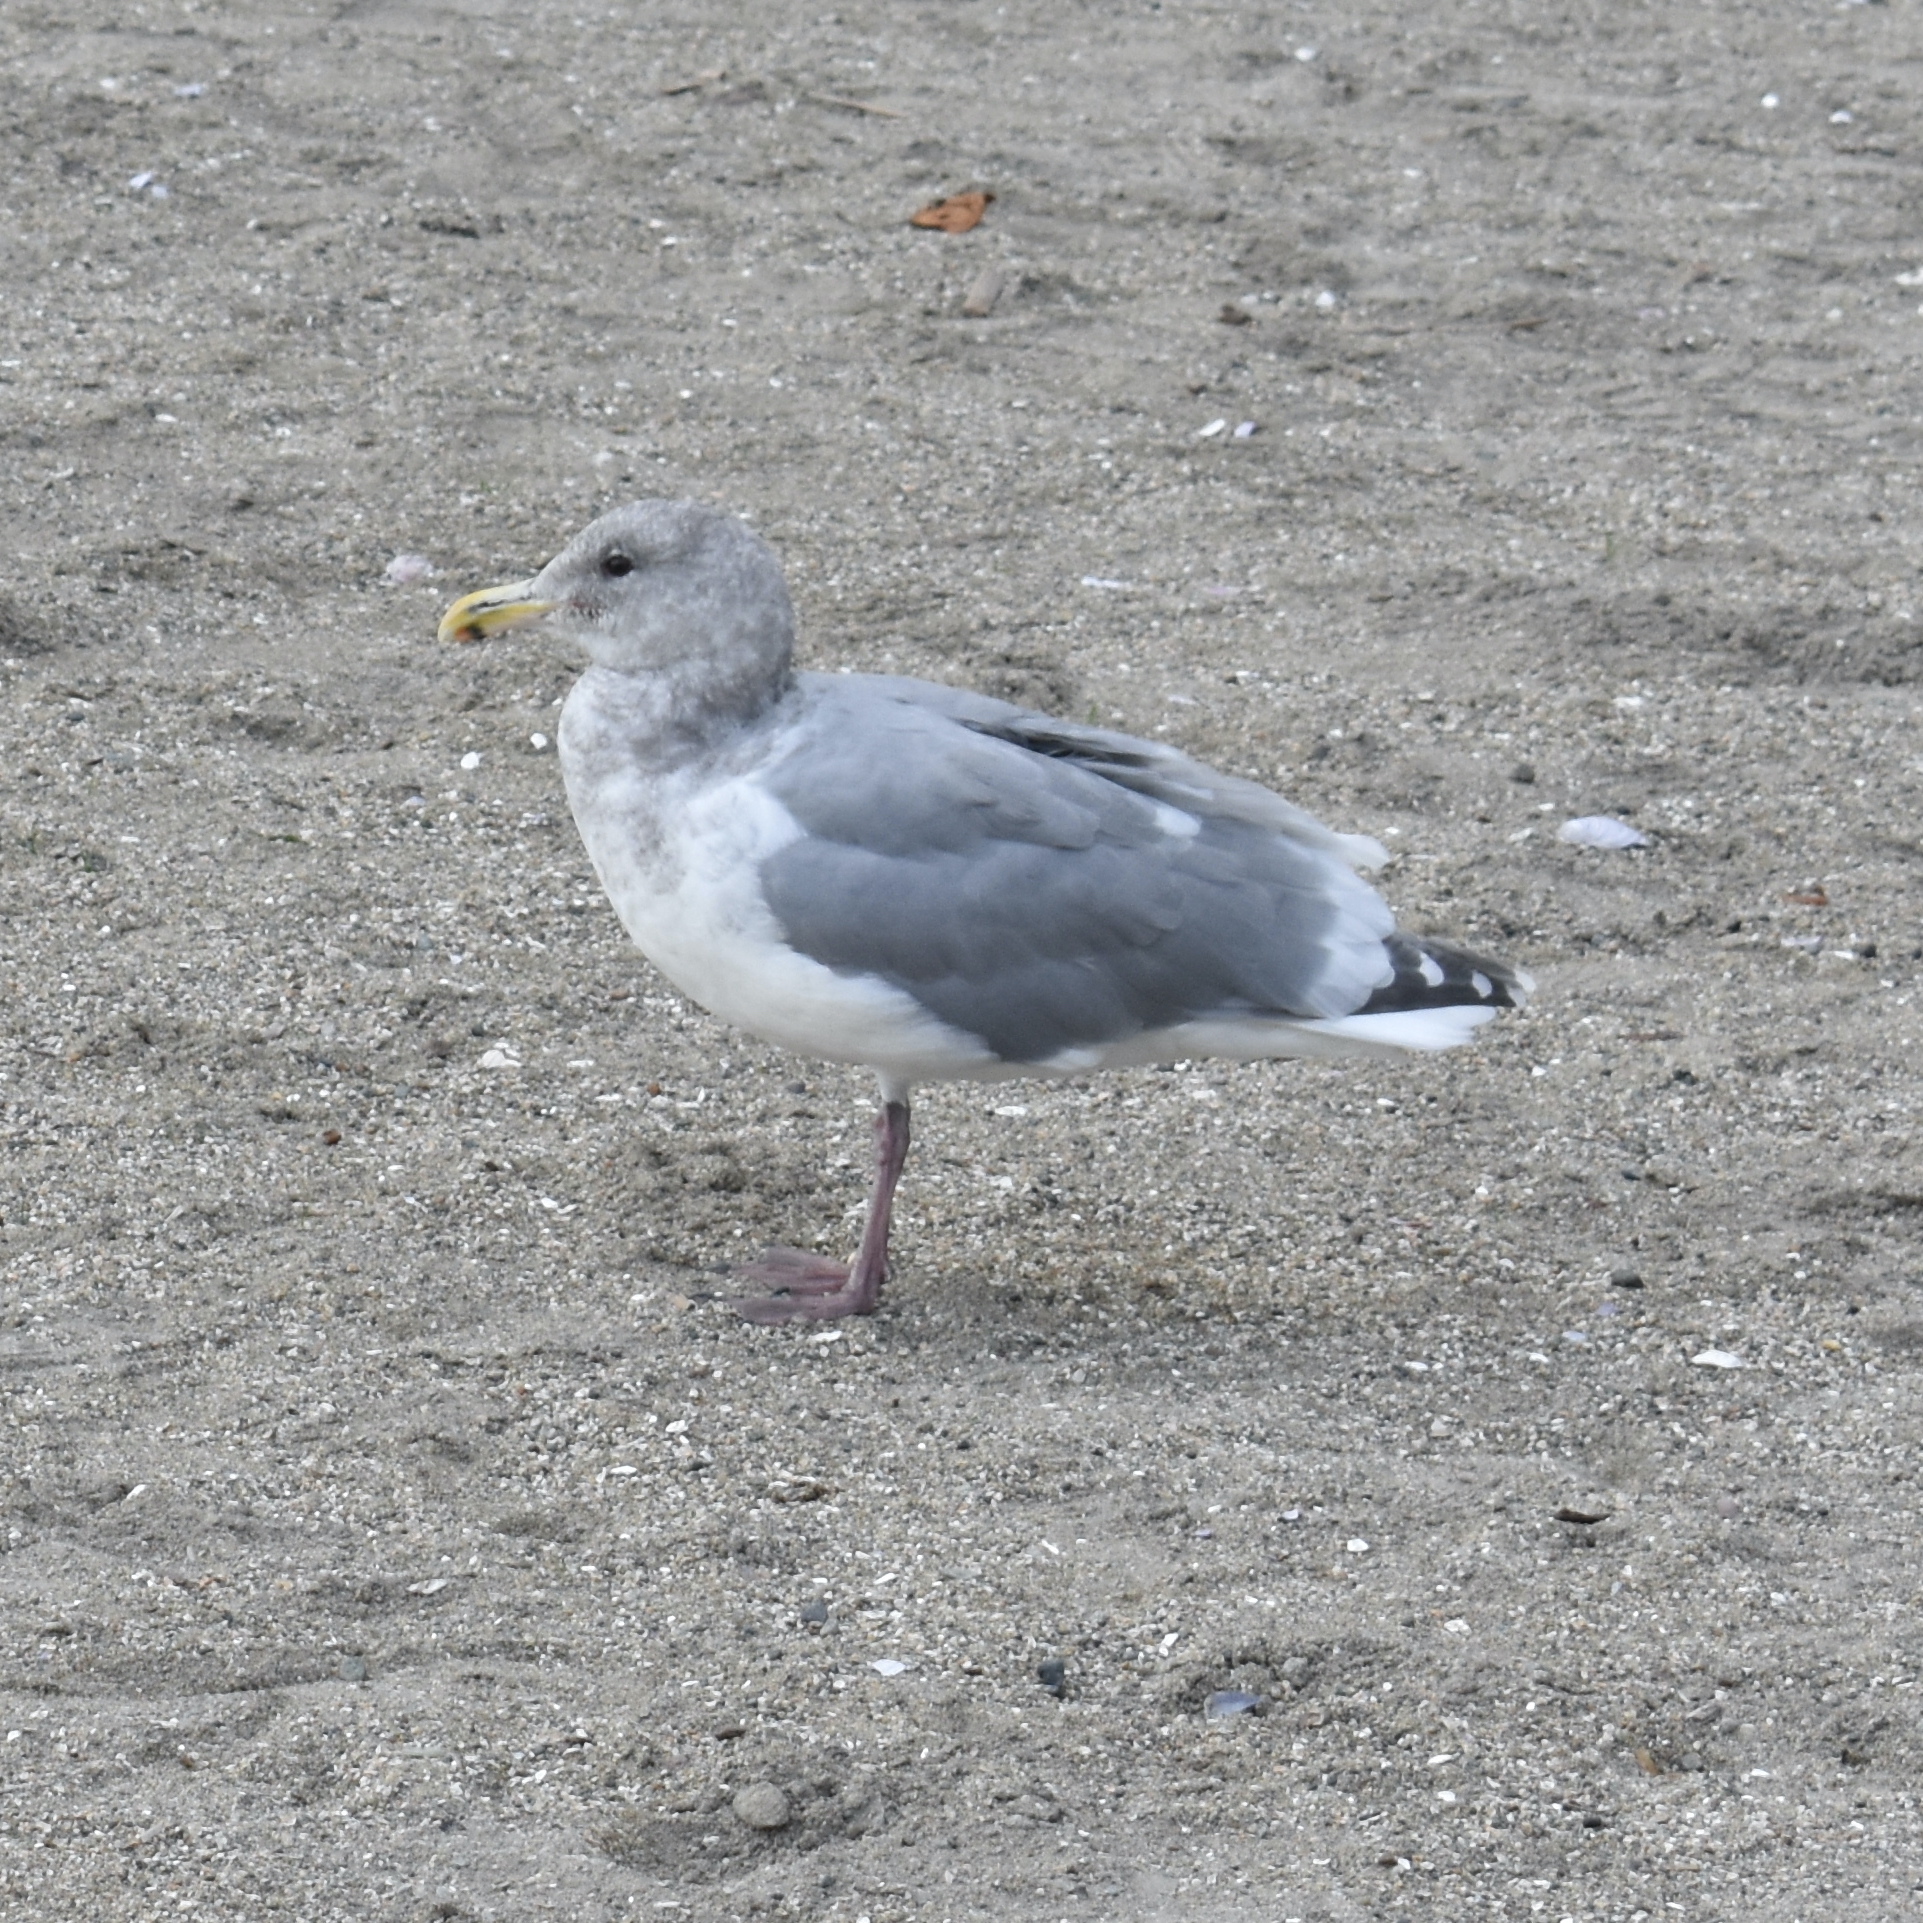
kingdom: Animalia
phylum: Chordata
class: Aves
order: Charadriiformes
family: Laridae
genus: Larus
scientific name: Larus
